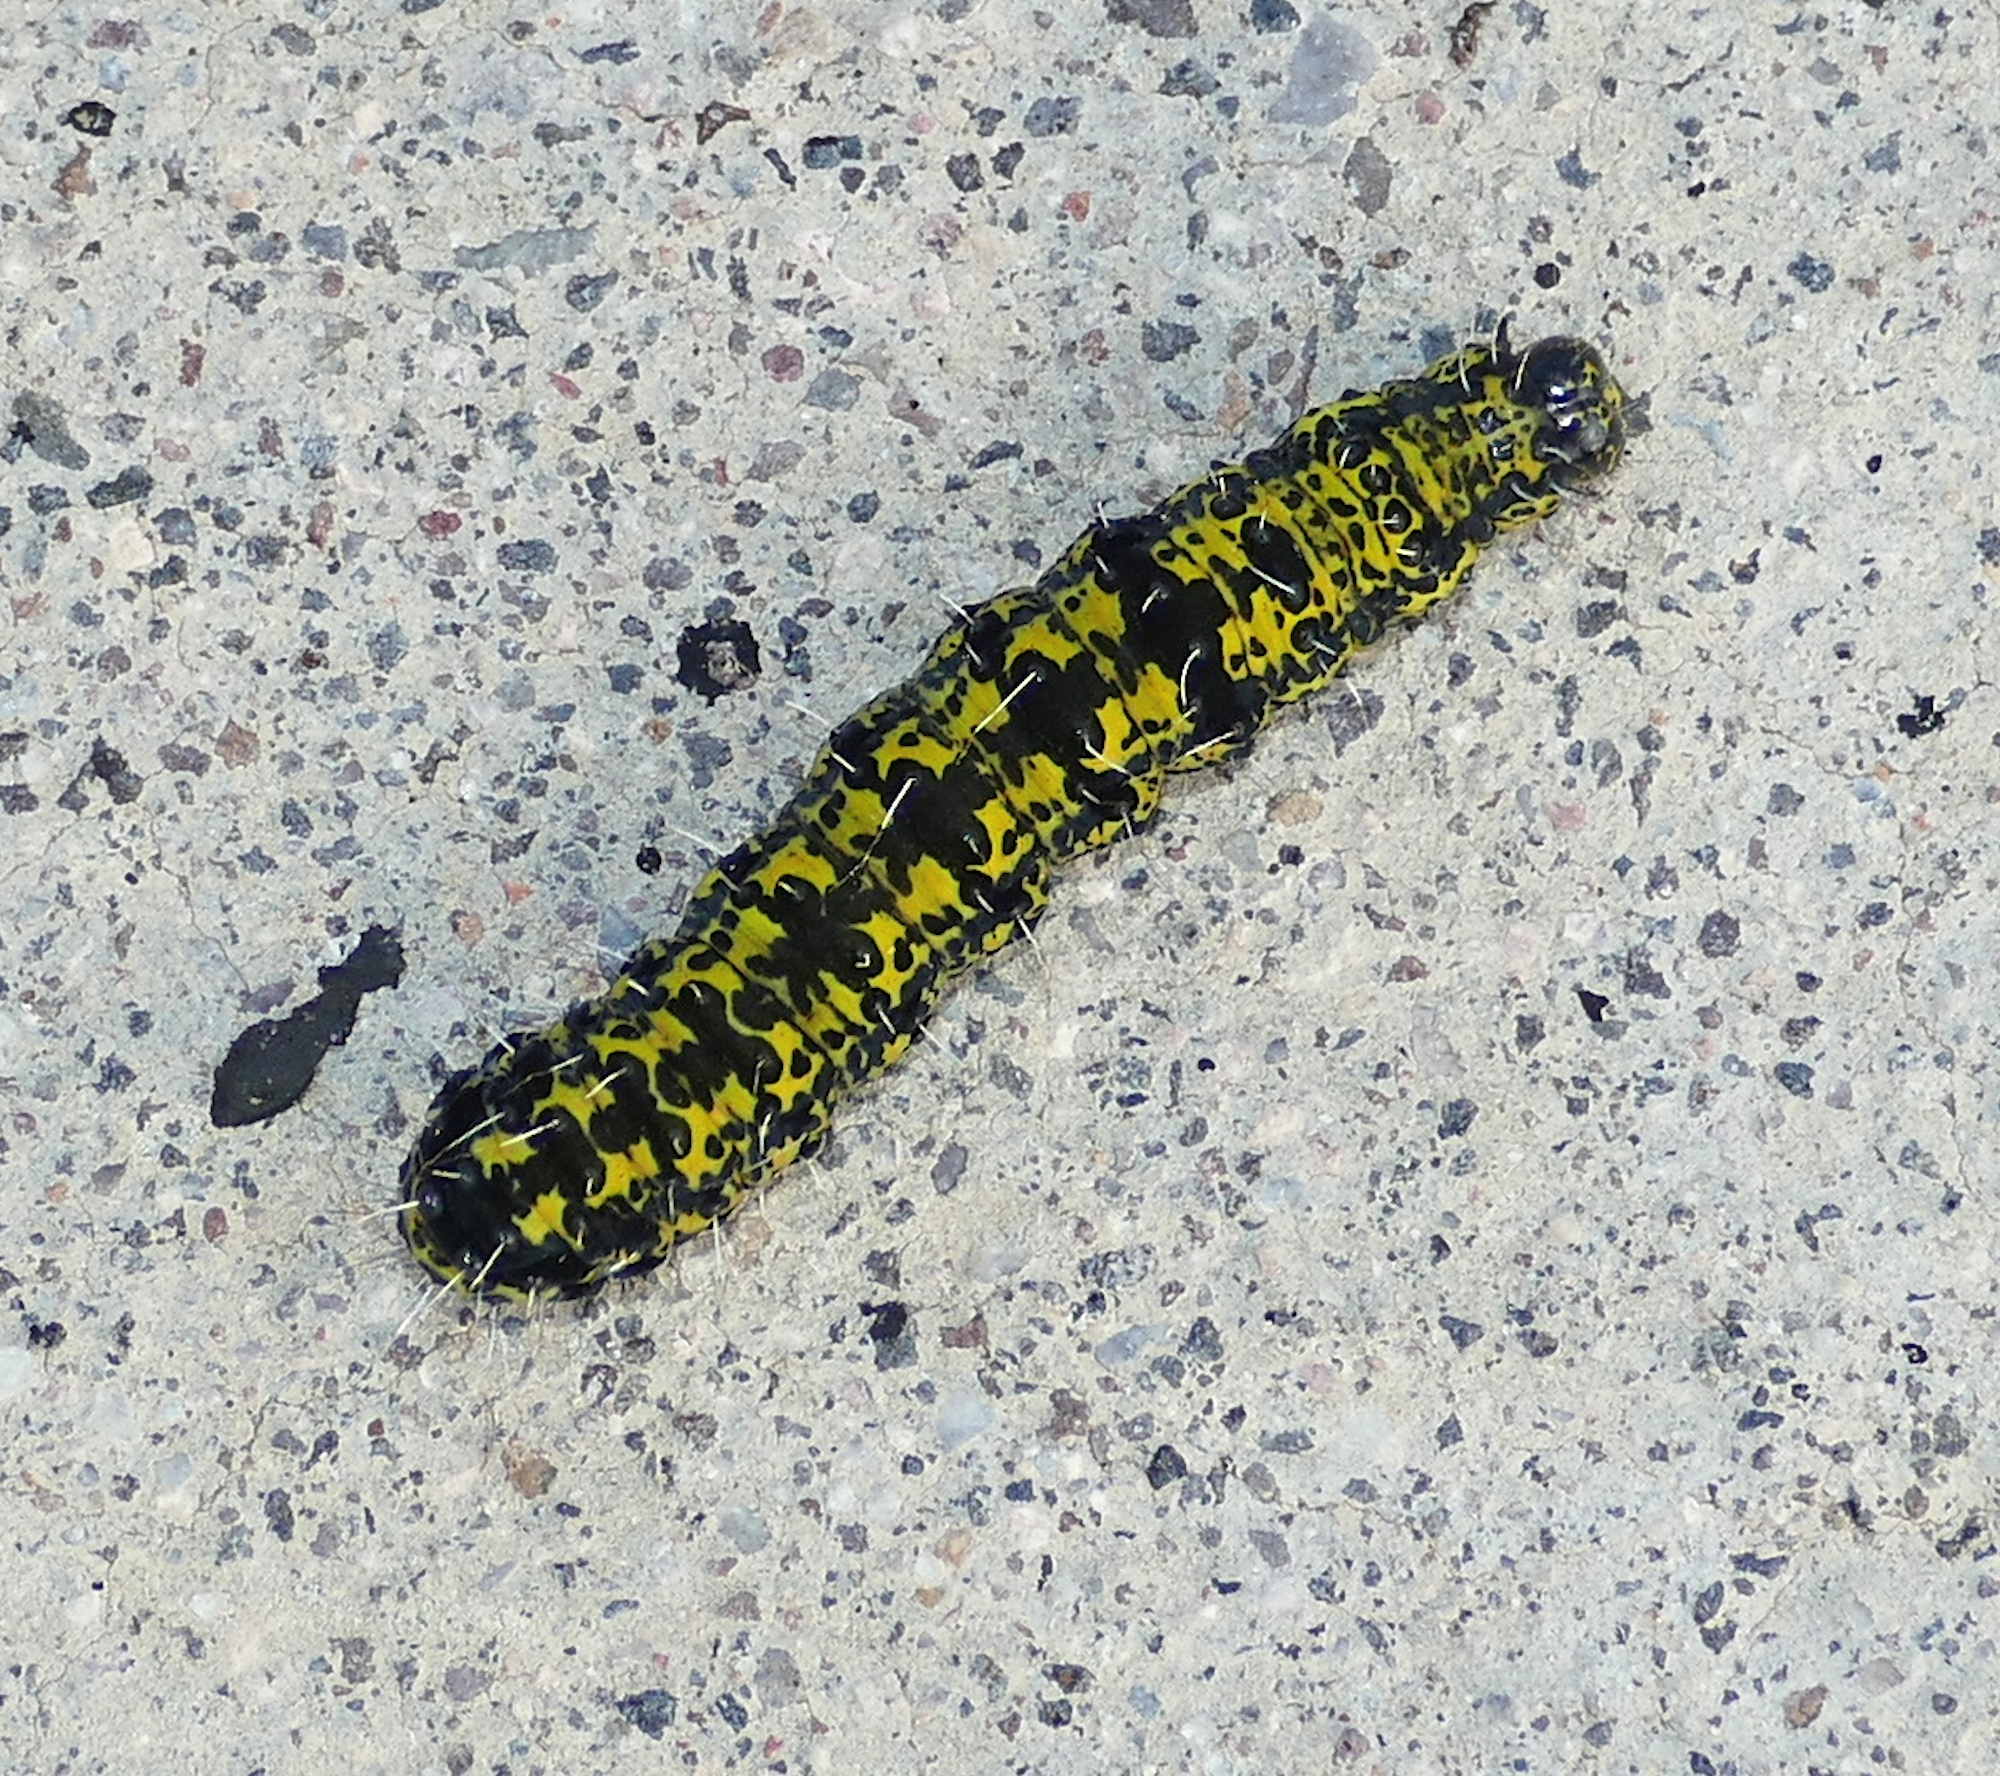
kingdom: Animalia
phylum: Arthropoda
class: Insecta
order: Lepidoptera
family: Noctuidae
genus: Alypiodes
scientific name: Alypiodes bimaculata
